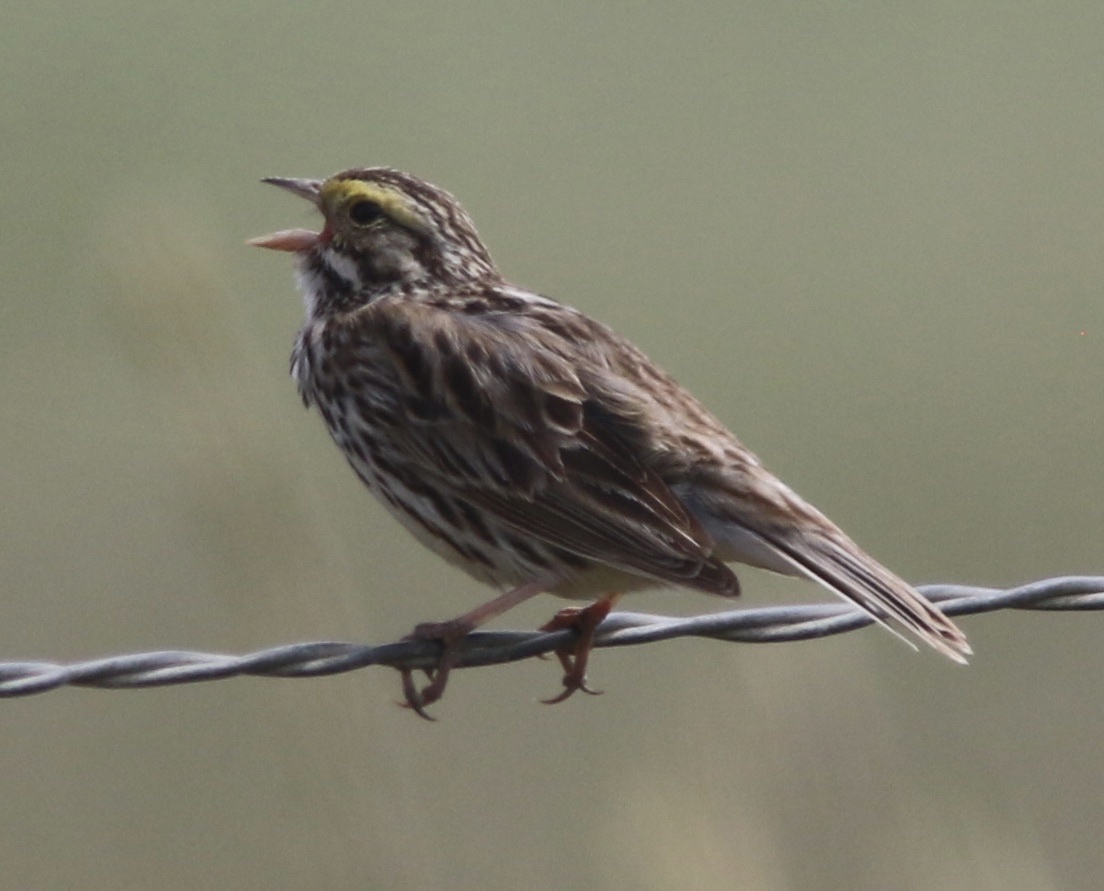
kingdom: Animalia
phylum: Chordata
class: Aves
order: Passeriformes
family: Passerellidae
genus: Passerculus
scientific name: Passerculus sandwichensis
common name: Savannah sparrow
